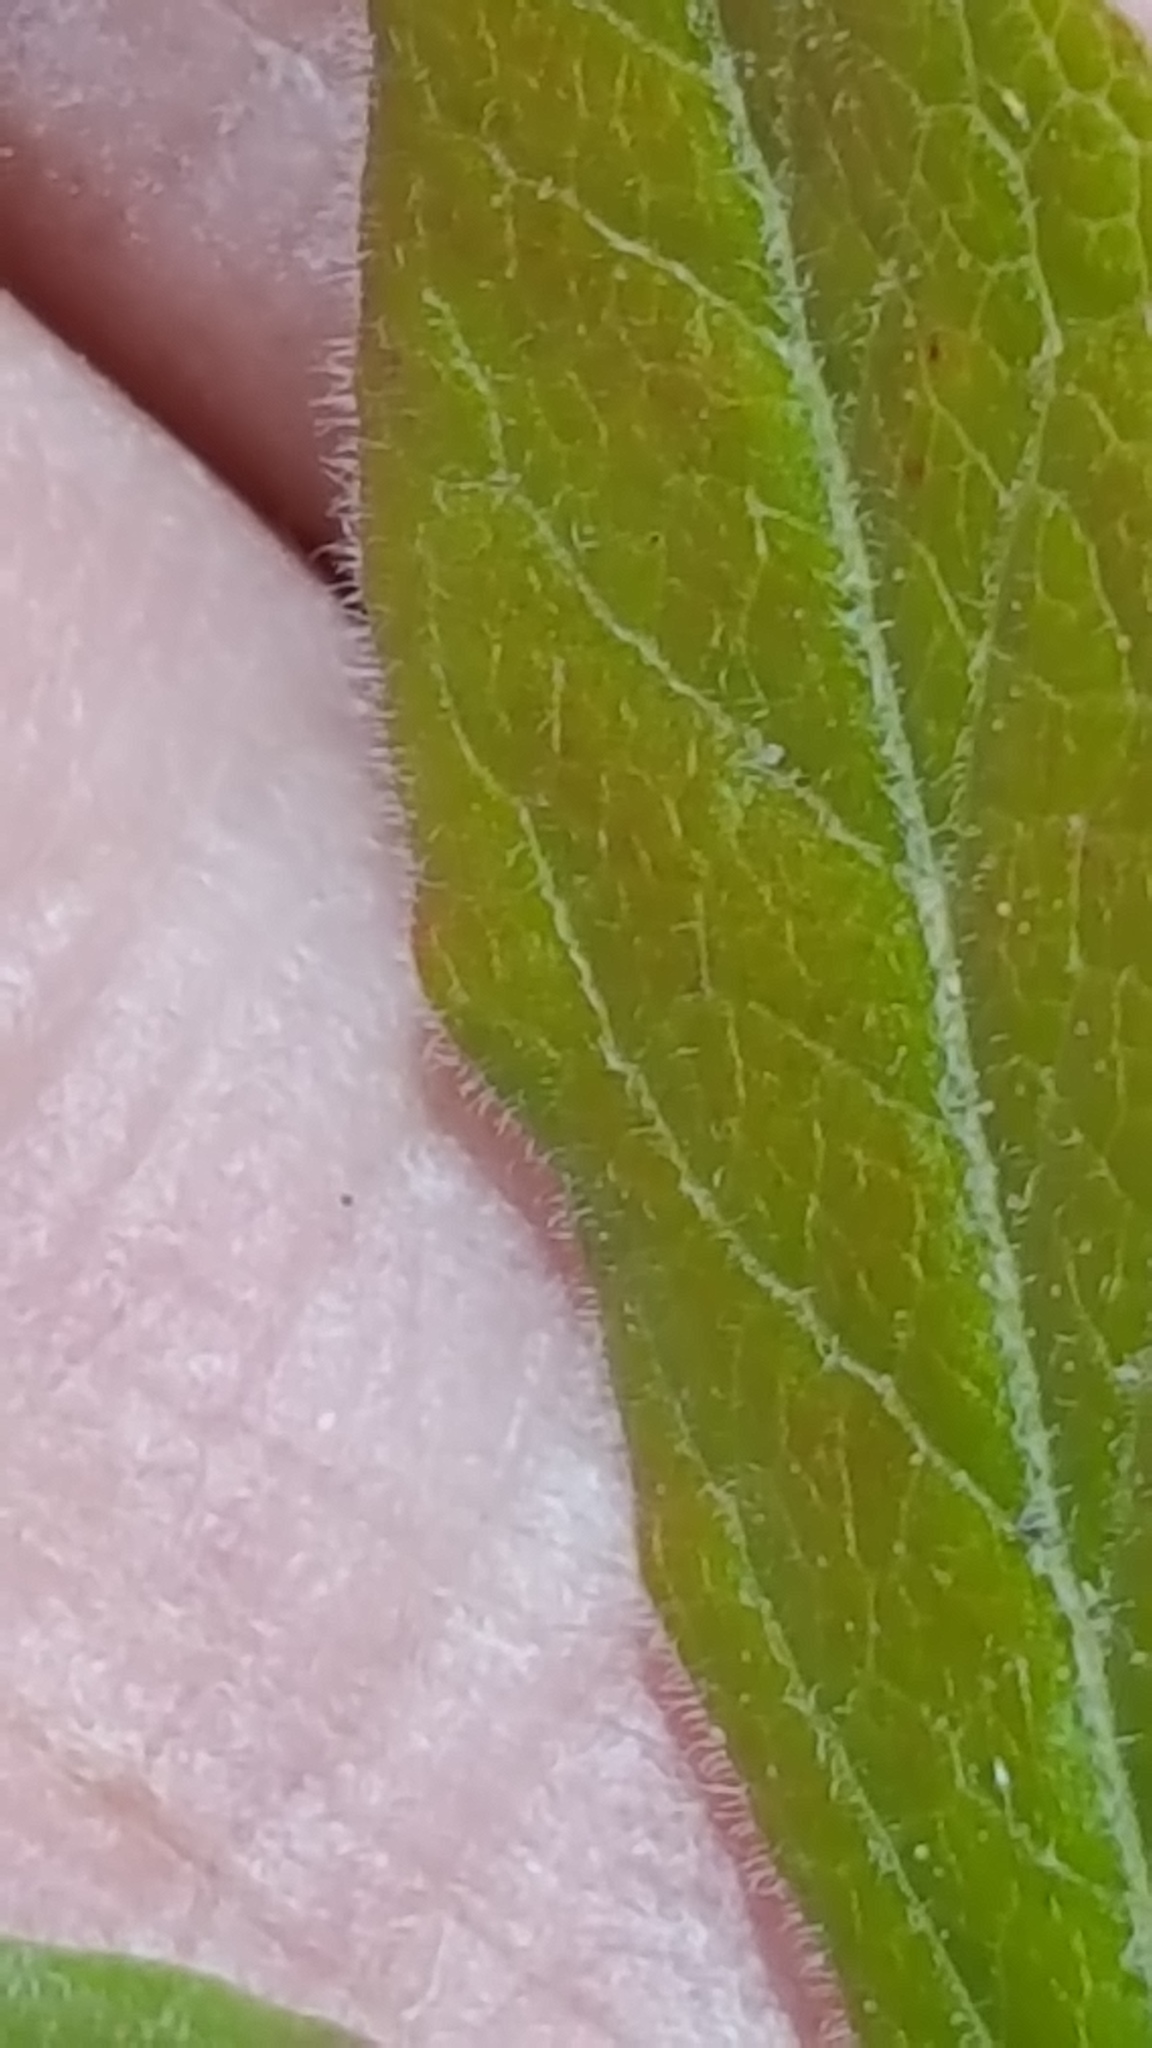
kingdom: Plantae
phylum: Tracheophyta
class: Magnoliopsida
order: Ericales
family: Ericaceae
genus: Vaccinium
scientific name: Vaccinium myrtilloides
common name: Canada blueberry
